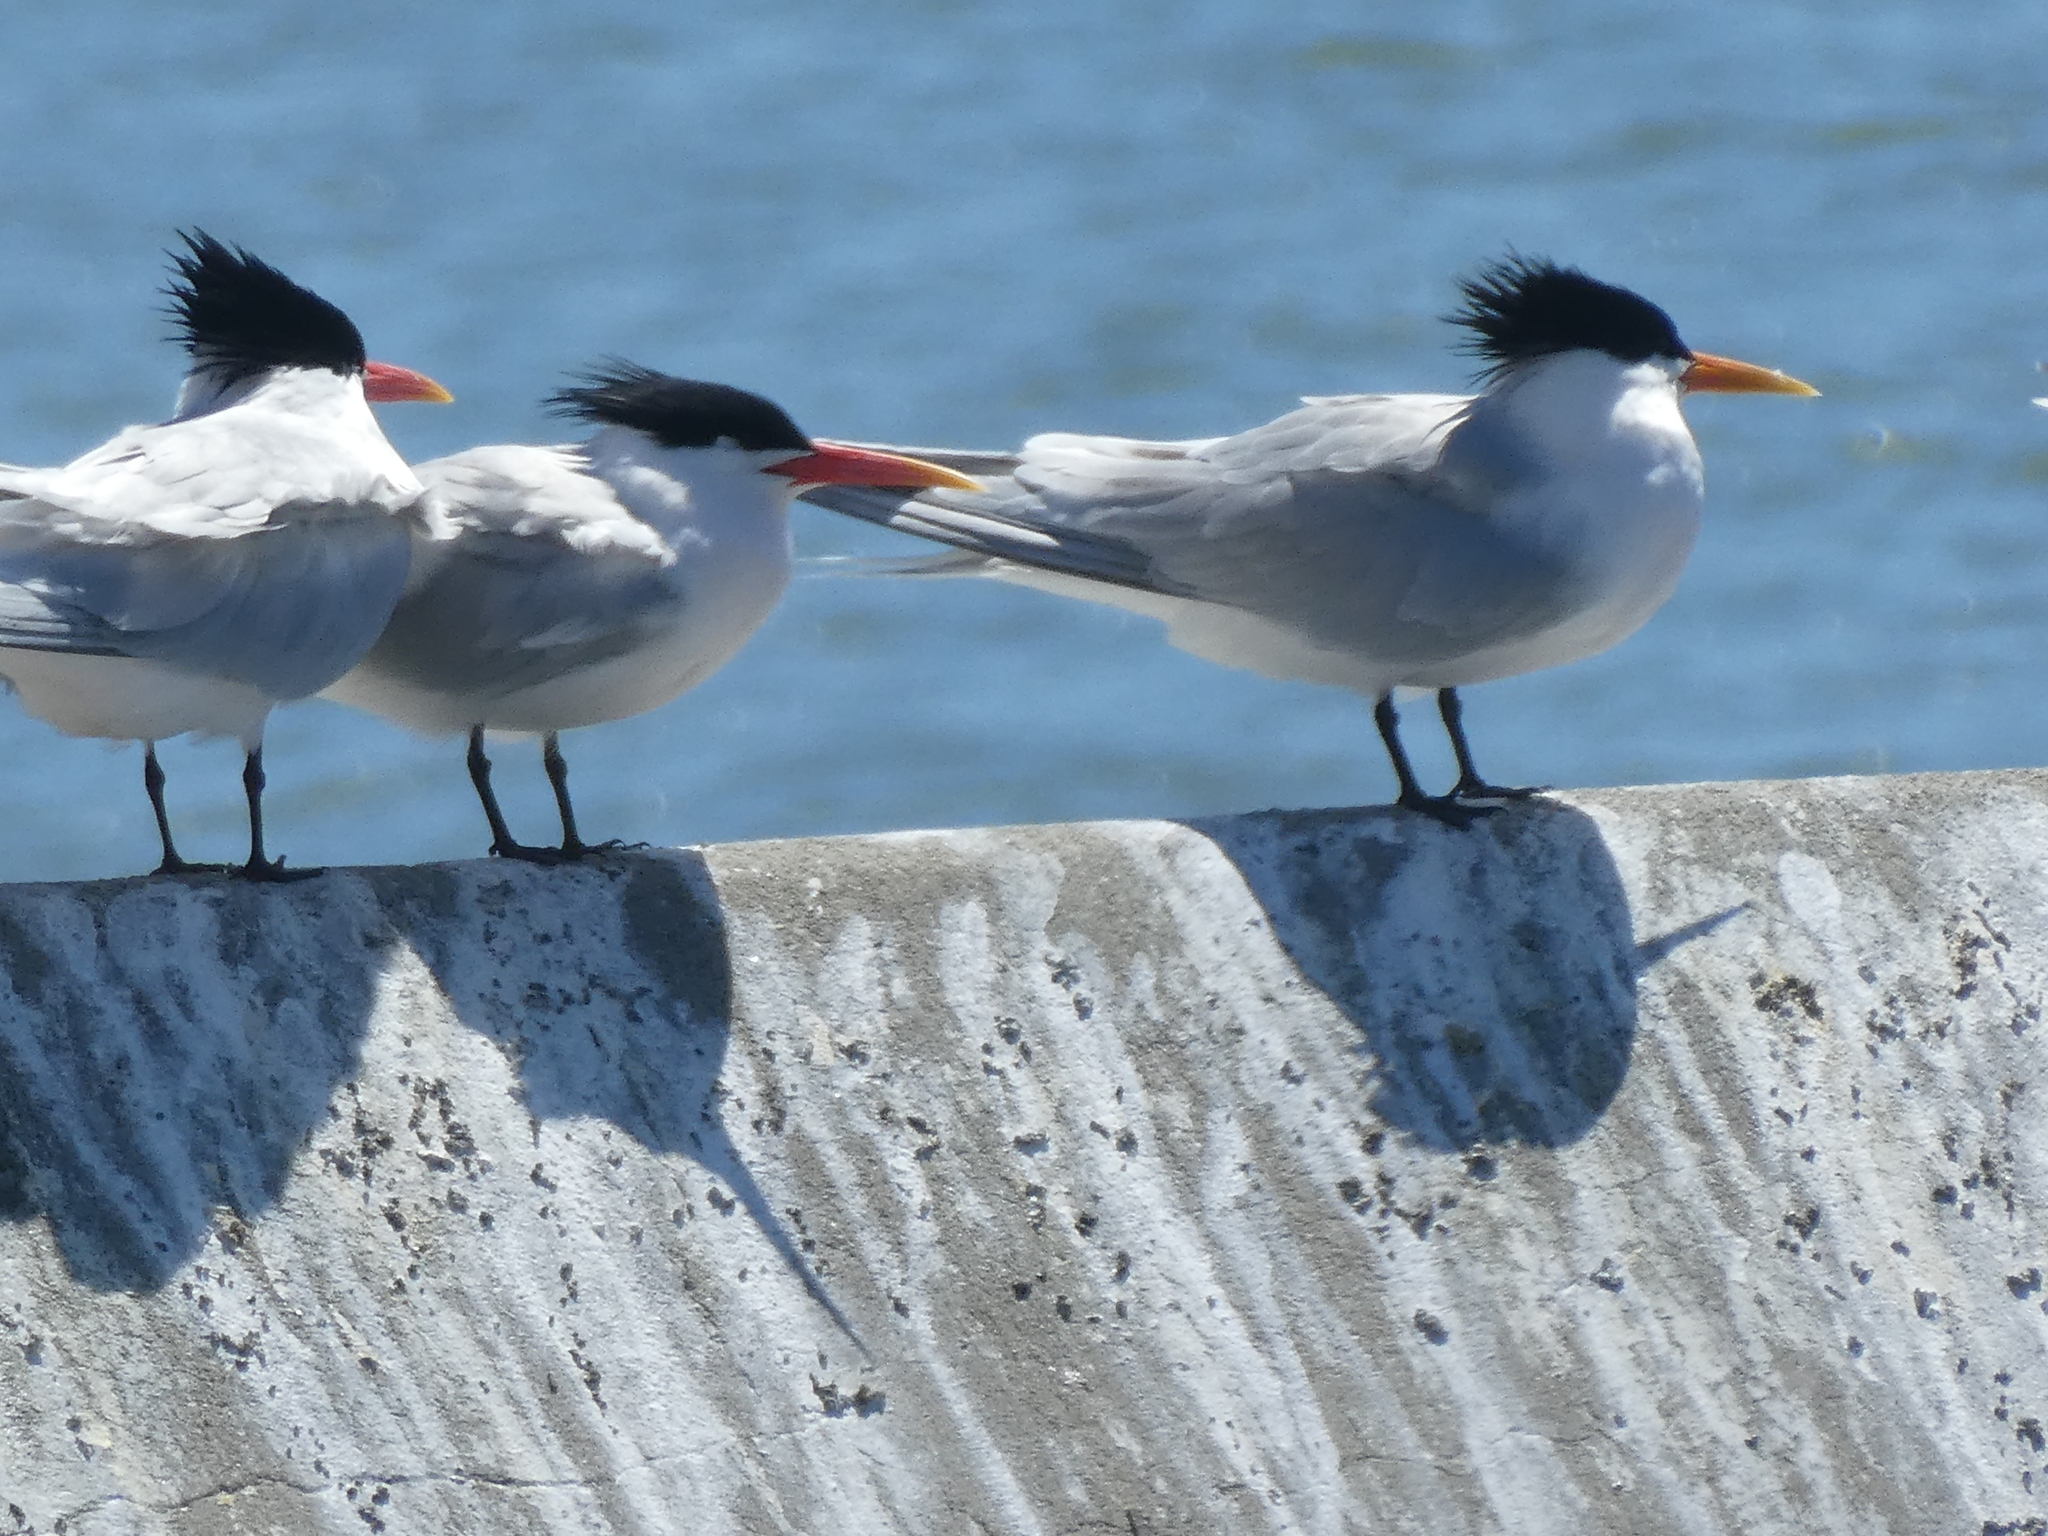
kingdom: Animalia
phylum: Chordata
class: Aves
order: Charadriiformes
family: Laridae
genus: Thalasseus
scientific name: Thalasseus elegans
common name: Elegant tern
